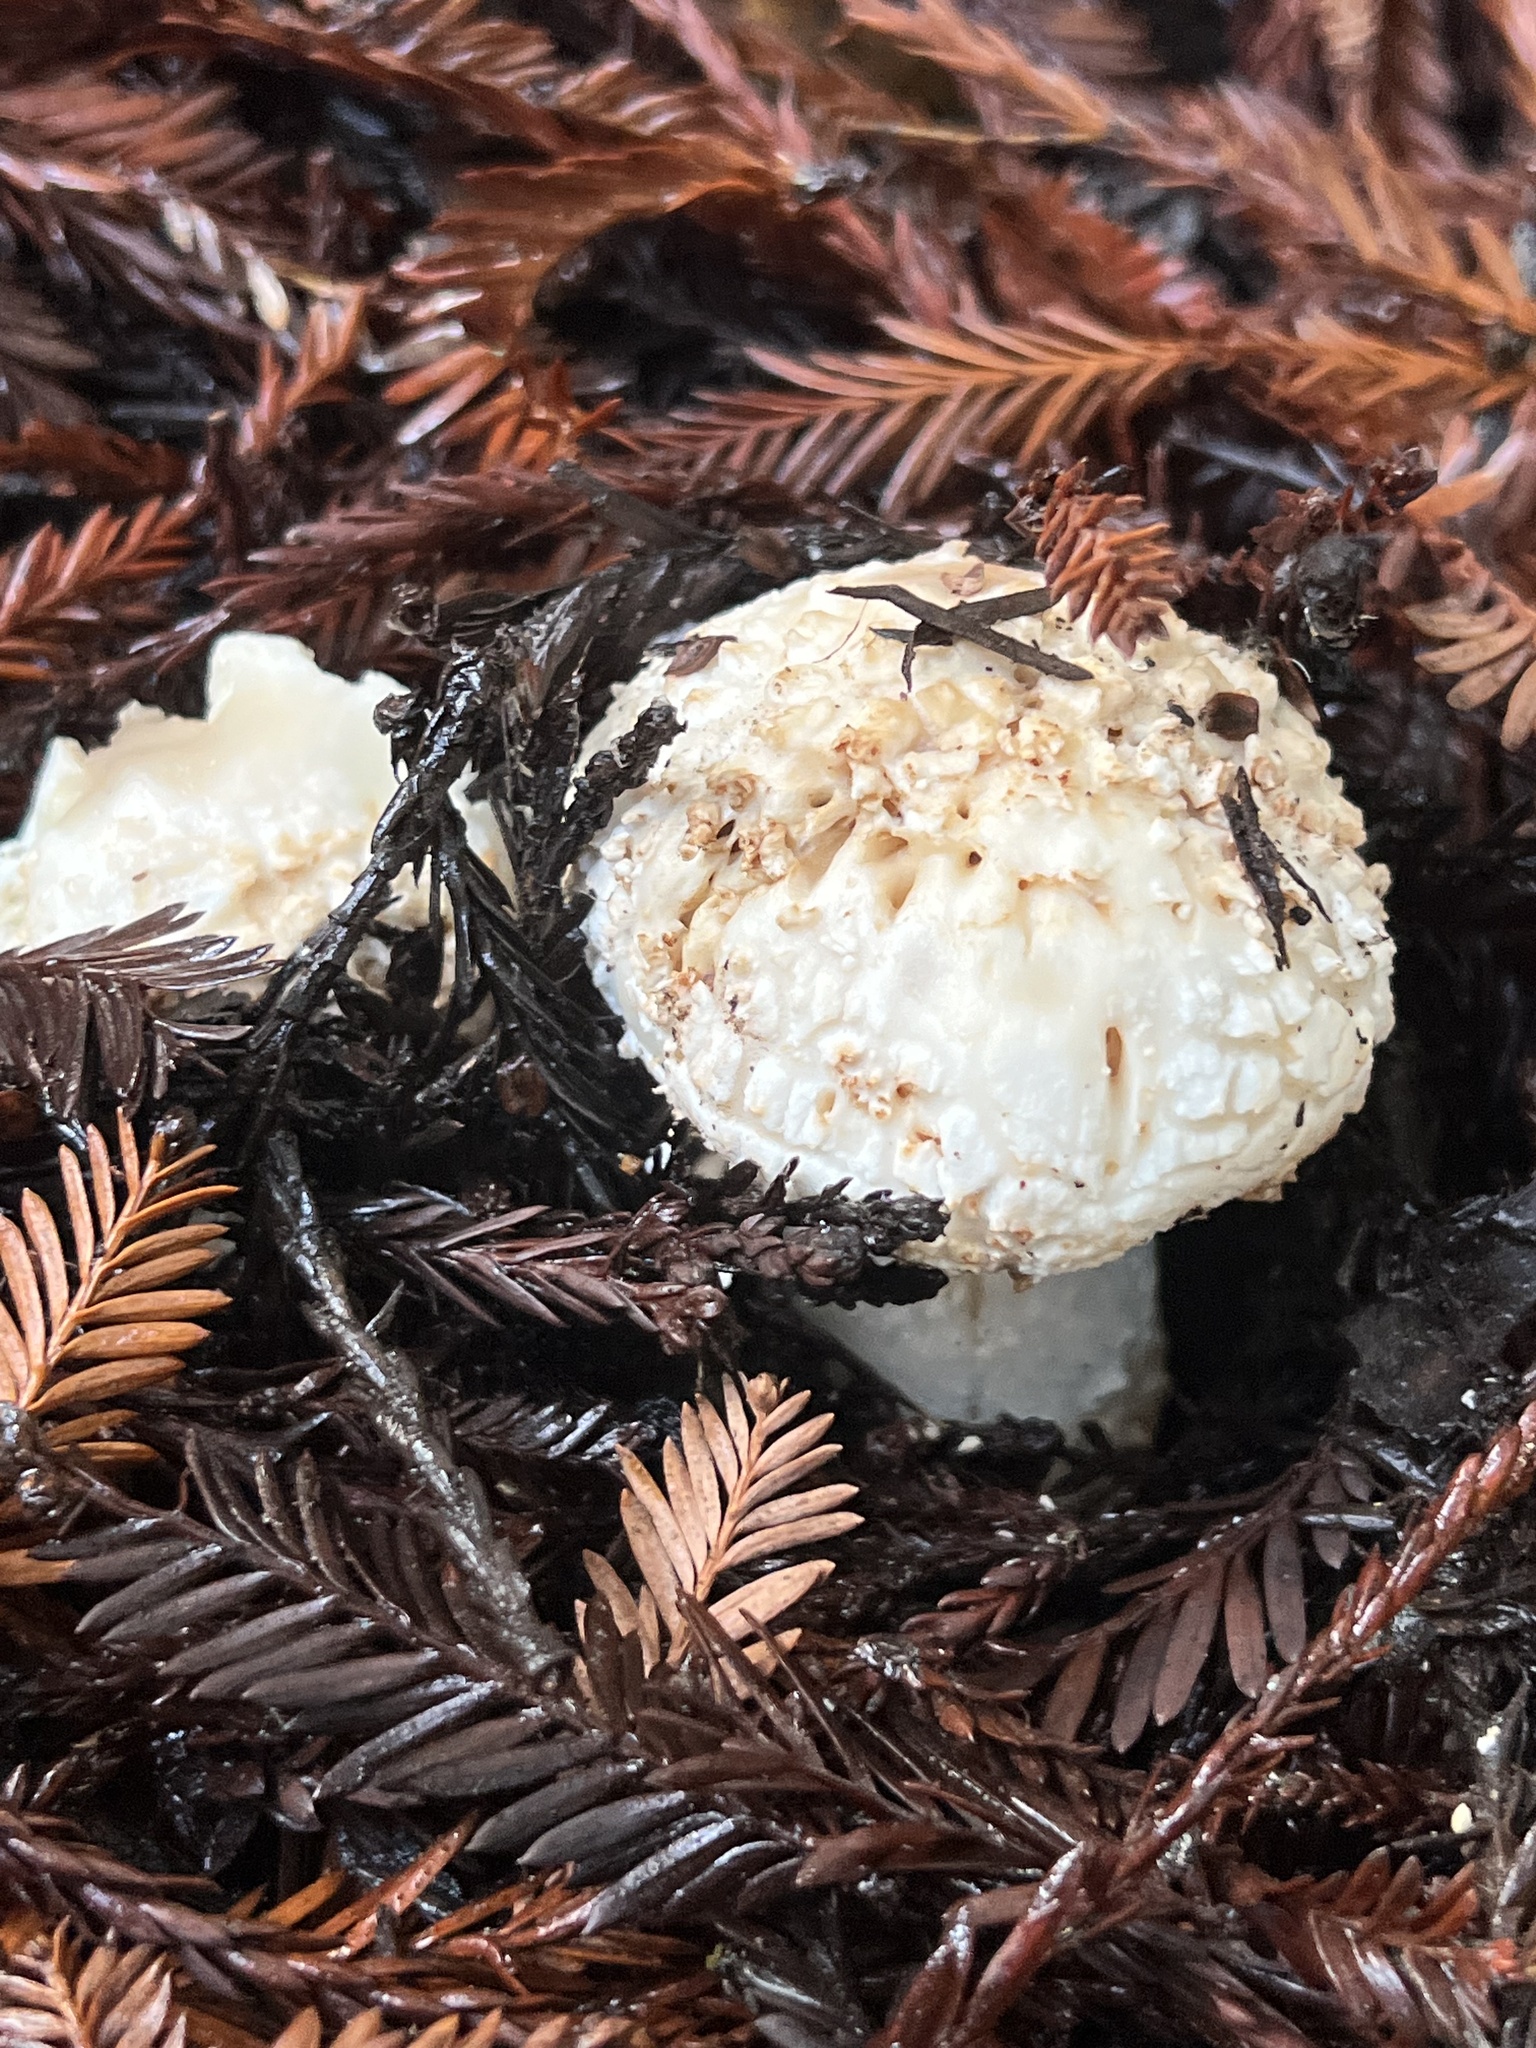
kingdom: Fungi
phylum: Basidiomycota
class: Agaricomycetes
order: Agaricales
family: Amanitaceae
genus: Amanita
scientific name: Amanita novinupta
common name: Blushing bride
